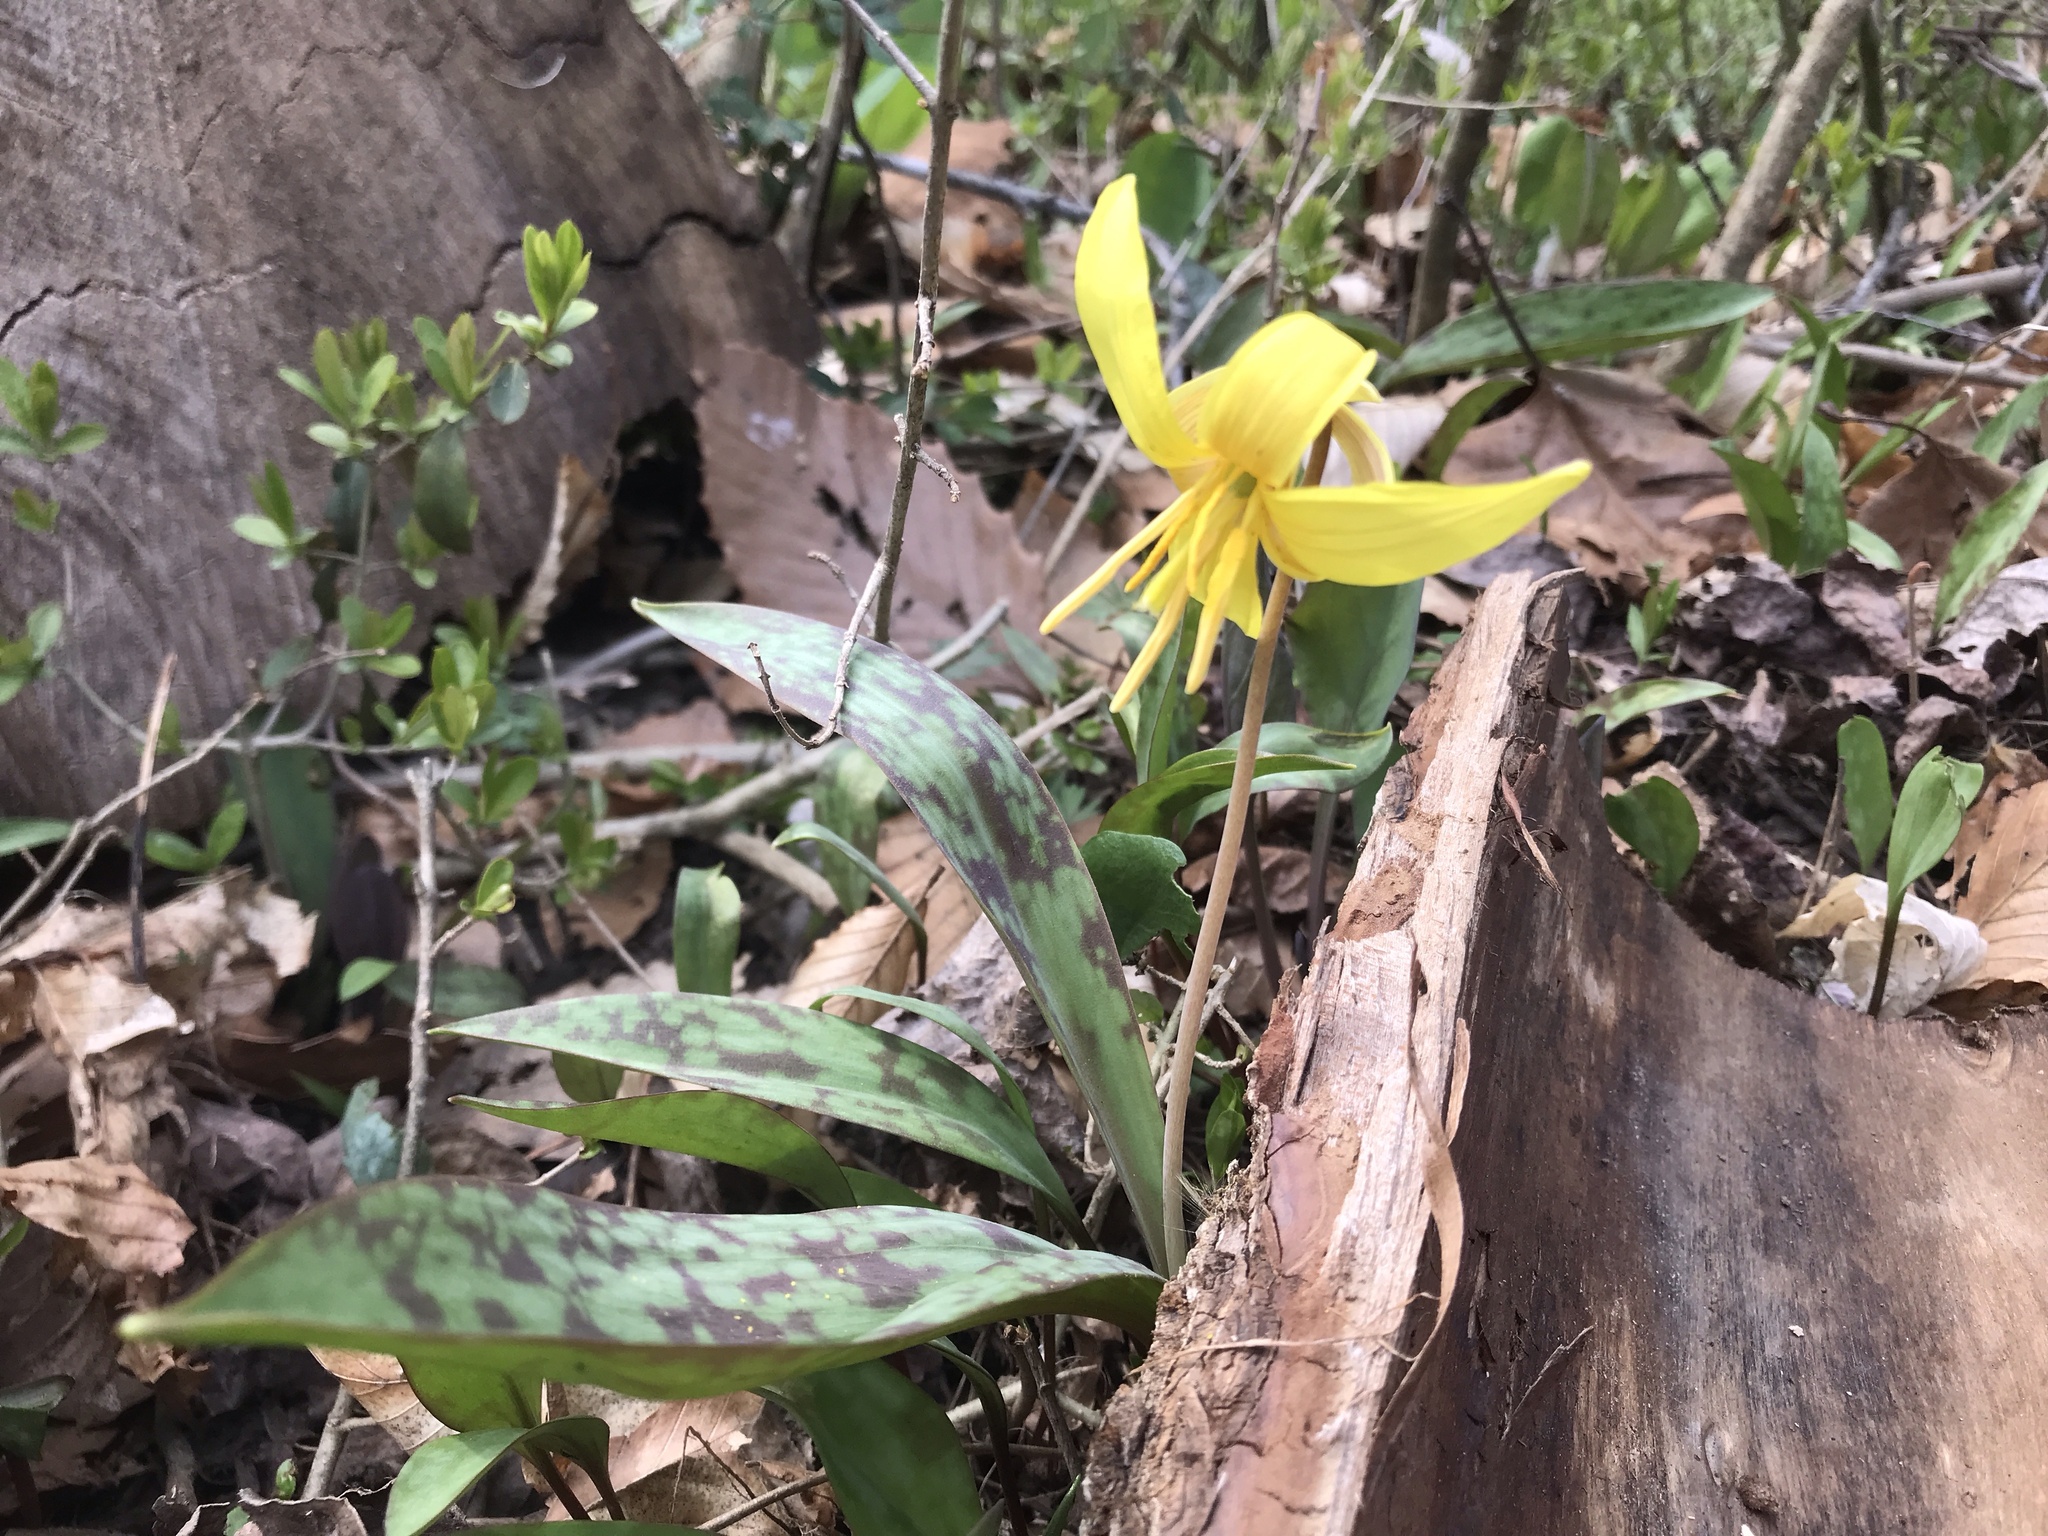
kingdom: Plantae
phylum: Tracheophyta
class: Liliopsida
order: Liliales
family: Liliaceae
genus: Erythronium
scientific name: Erythronium americanum
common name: Yellow adder's-tongue
